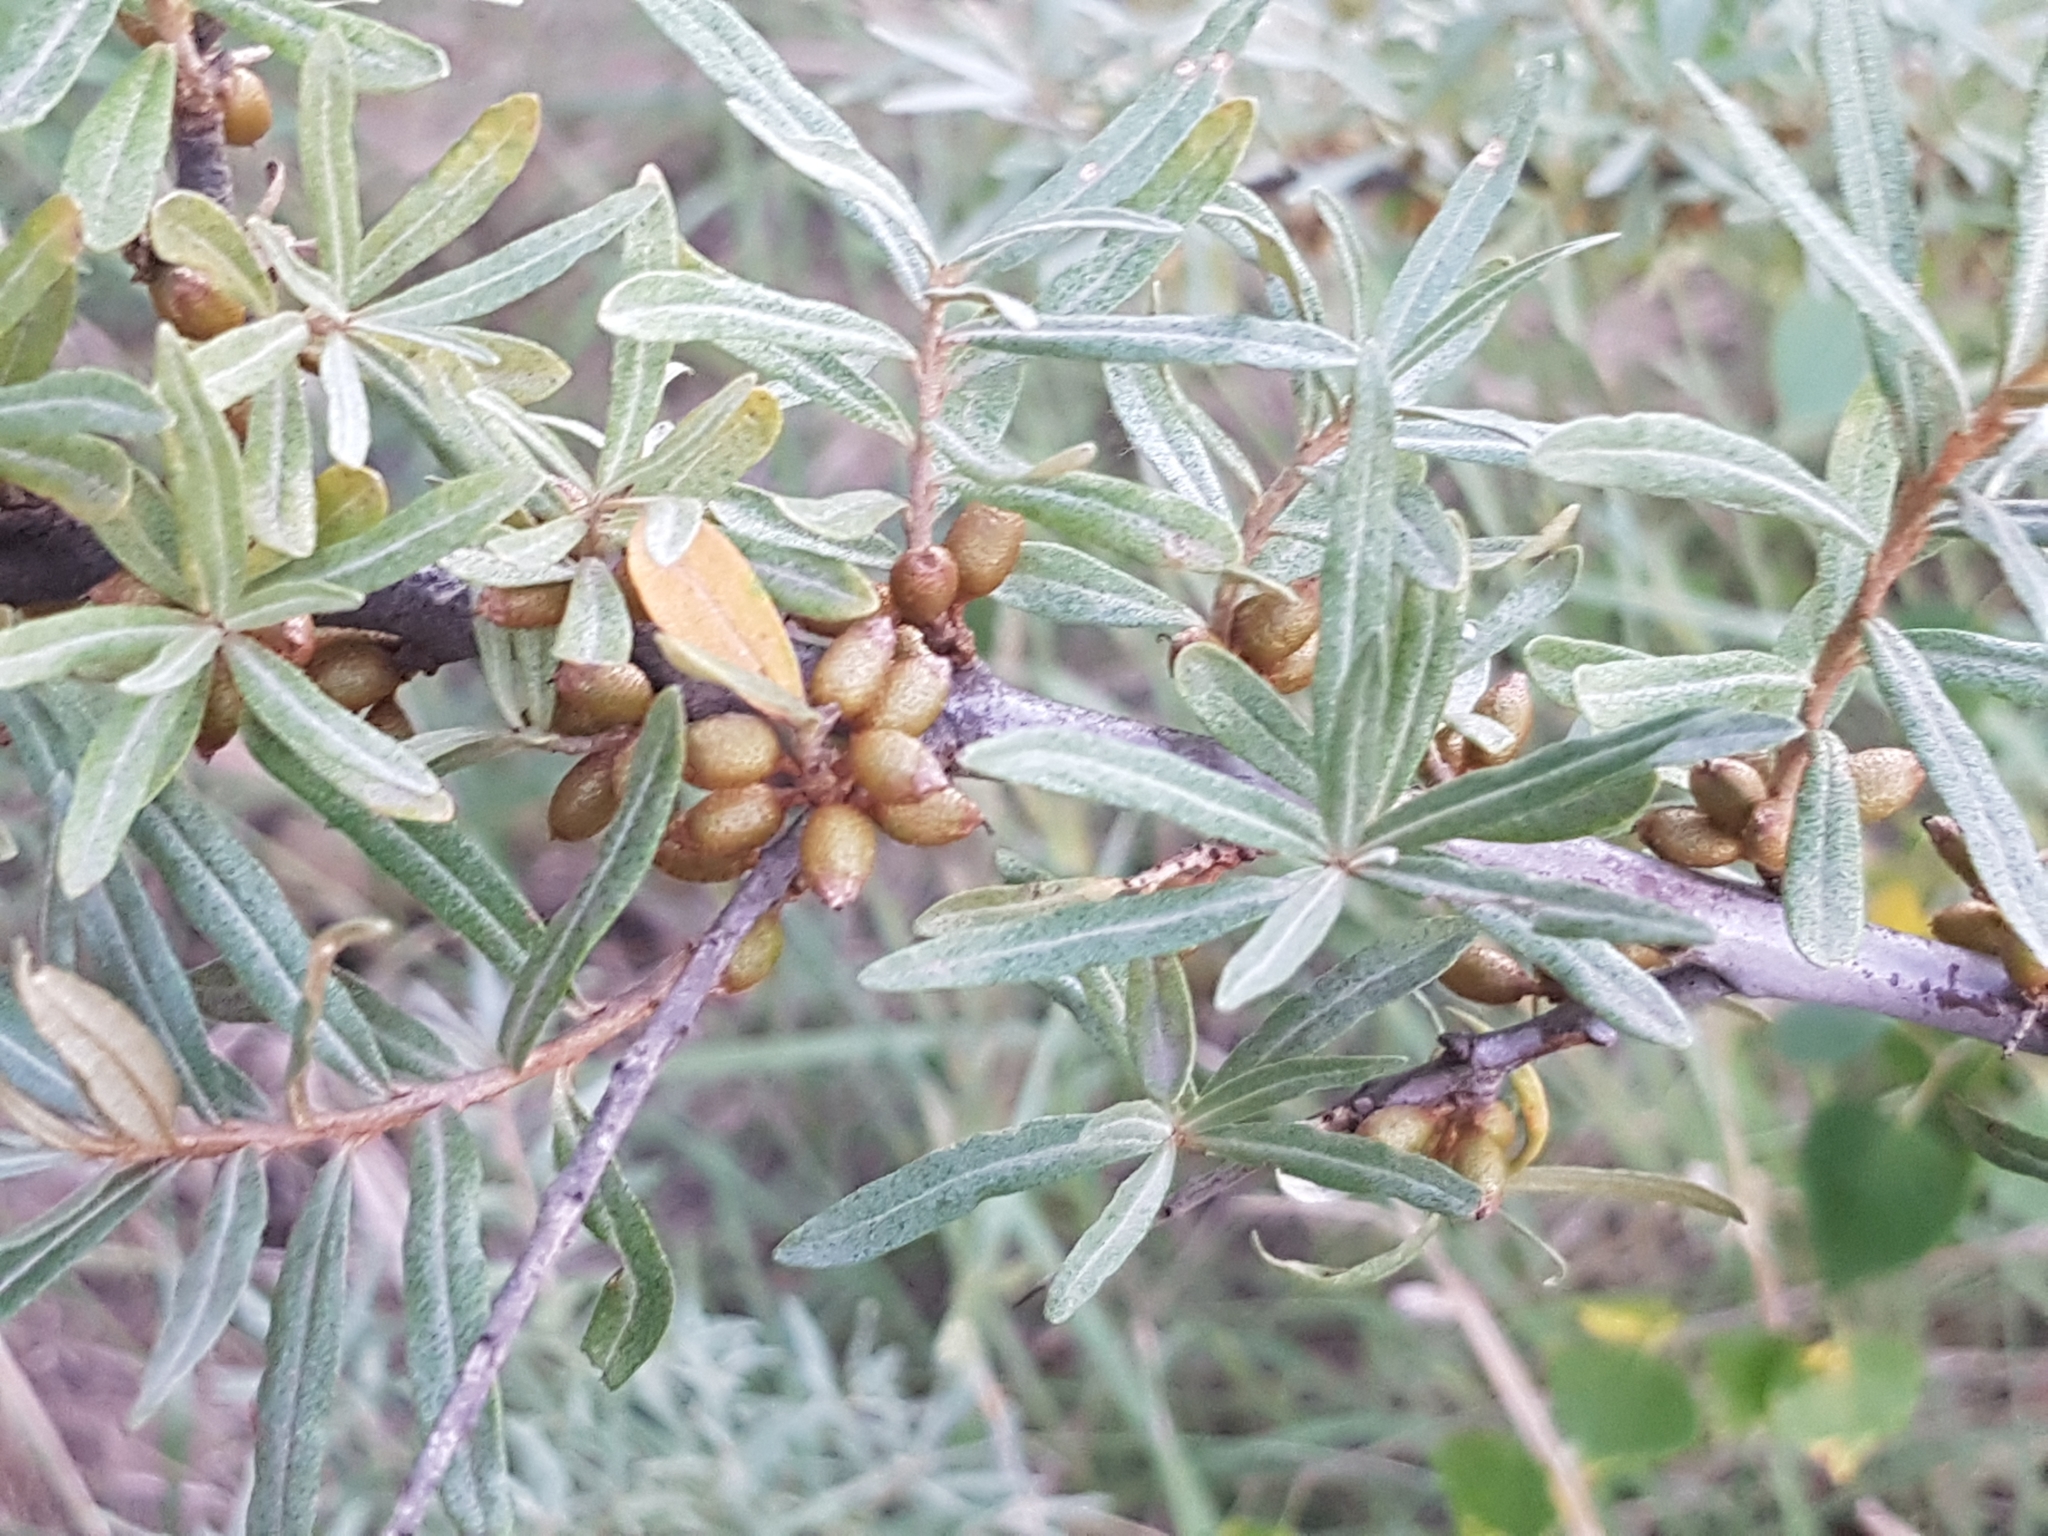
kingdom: Plantae
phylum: Tracheophyta
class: Magnoliopsida
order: Rosales
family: Elaeagnaceae
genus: Hippophae
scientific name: Hippophae rhamnoides
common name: Sea-buckthorn
